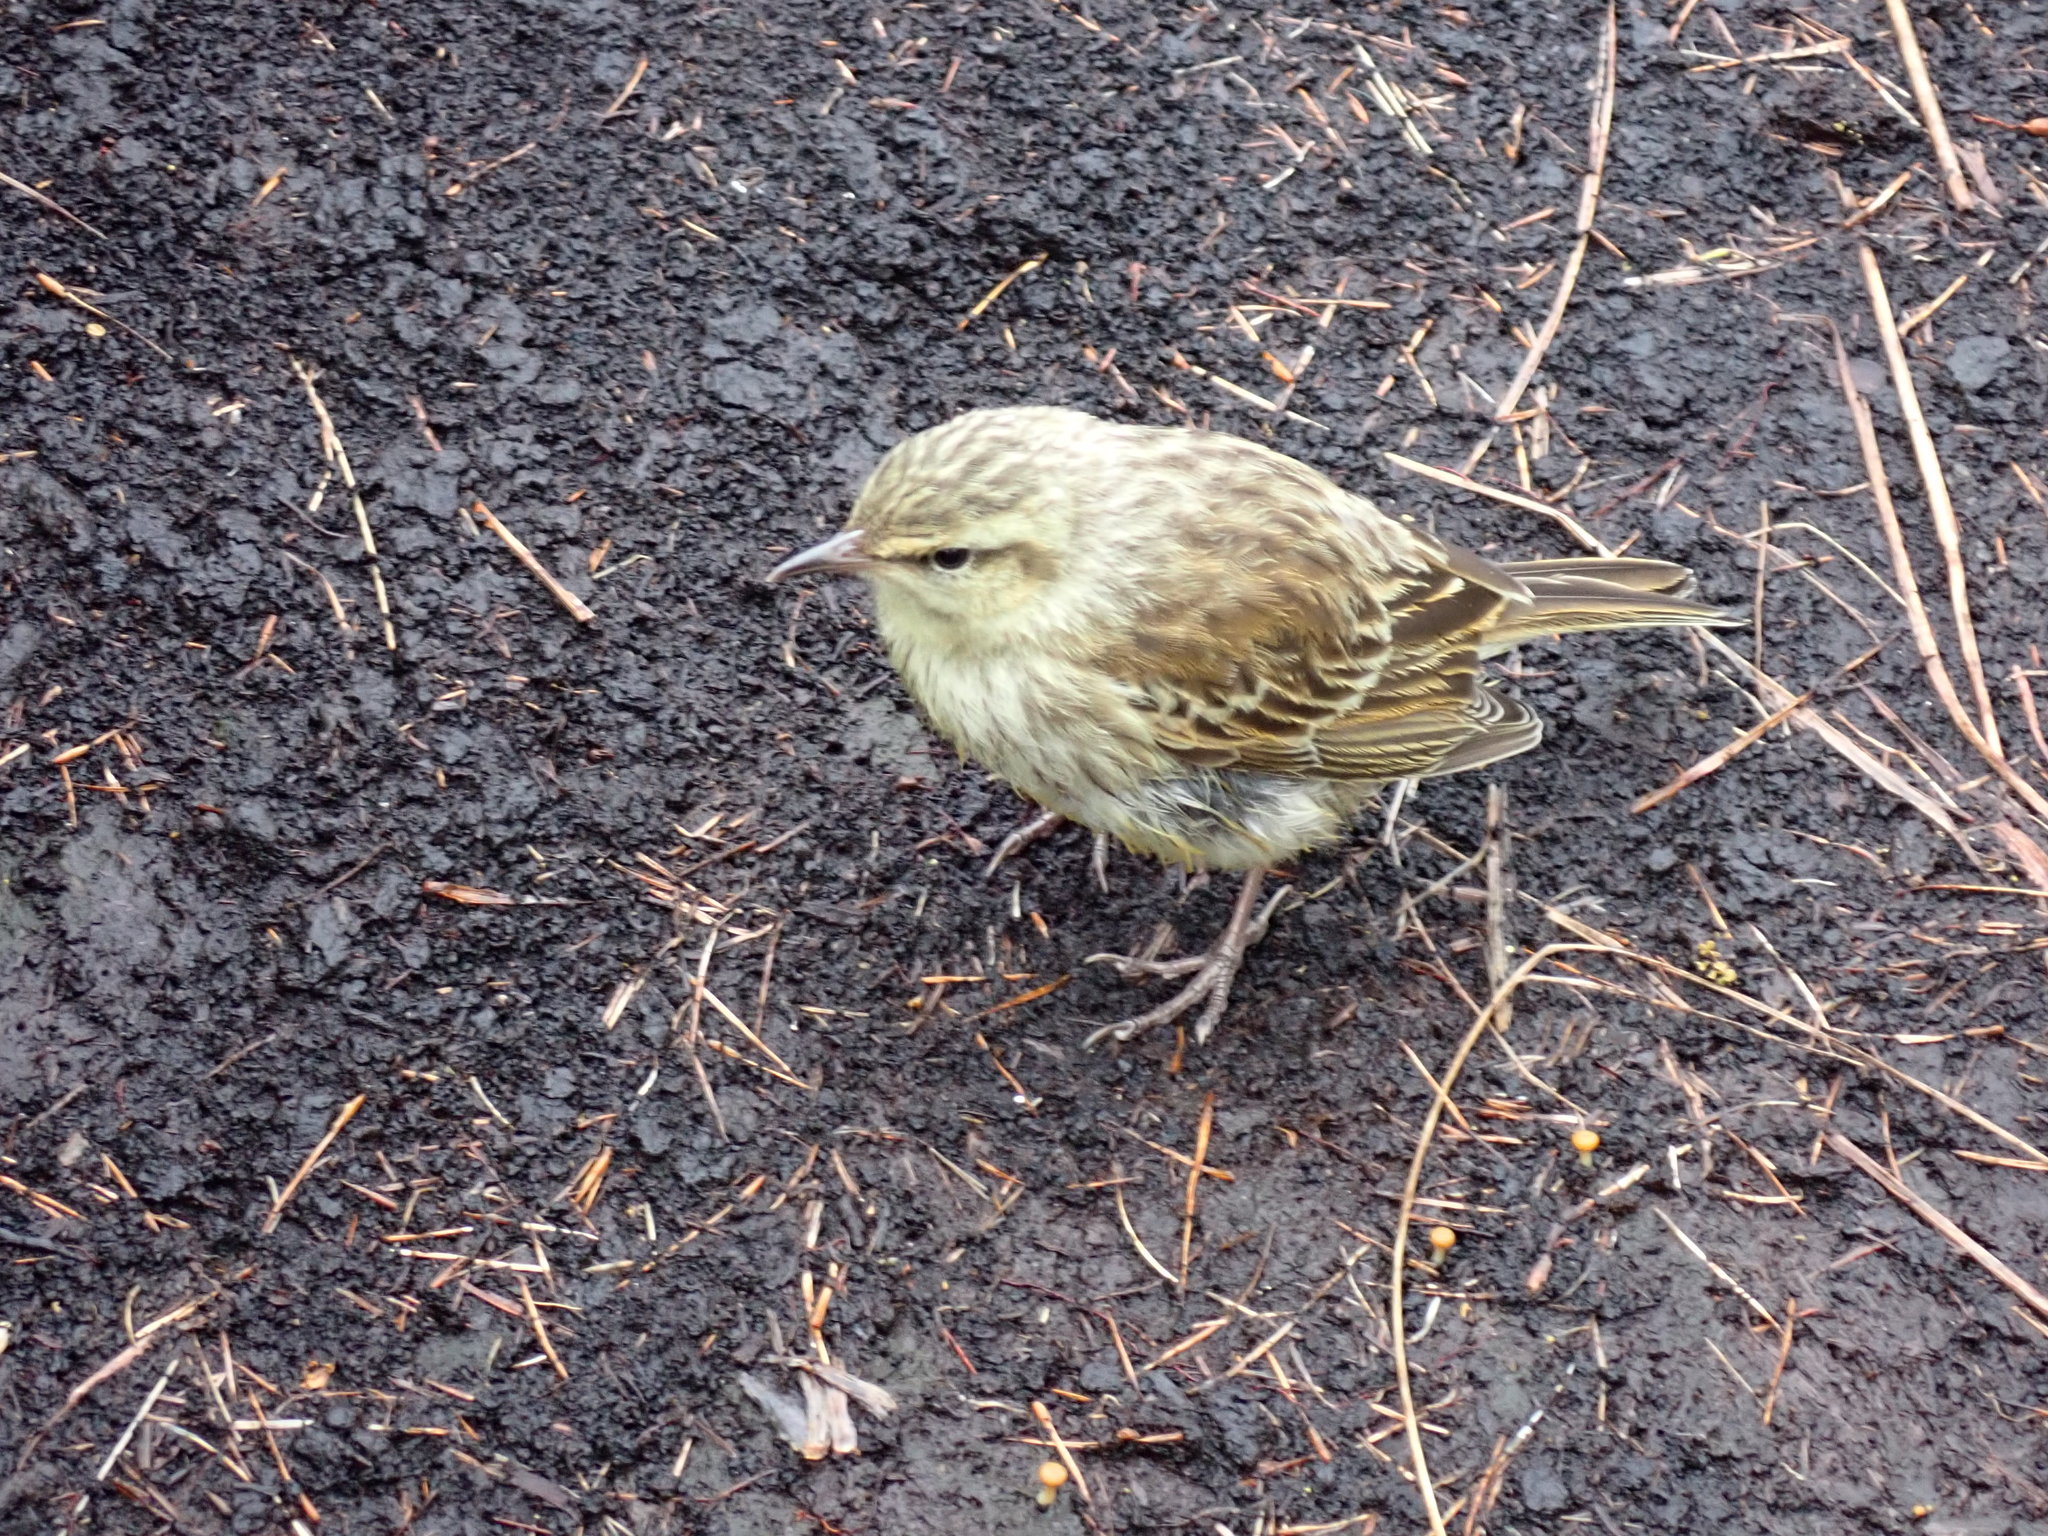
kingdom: Animalia
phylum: Chordata
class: Aves
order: Passeriformes
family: Motacillidae
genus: Anthus
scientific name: Anthus novaeseelandiae
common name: New zealand pipit
